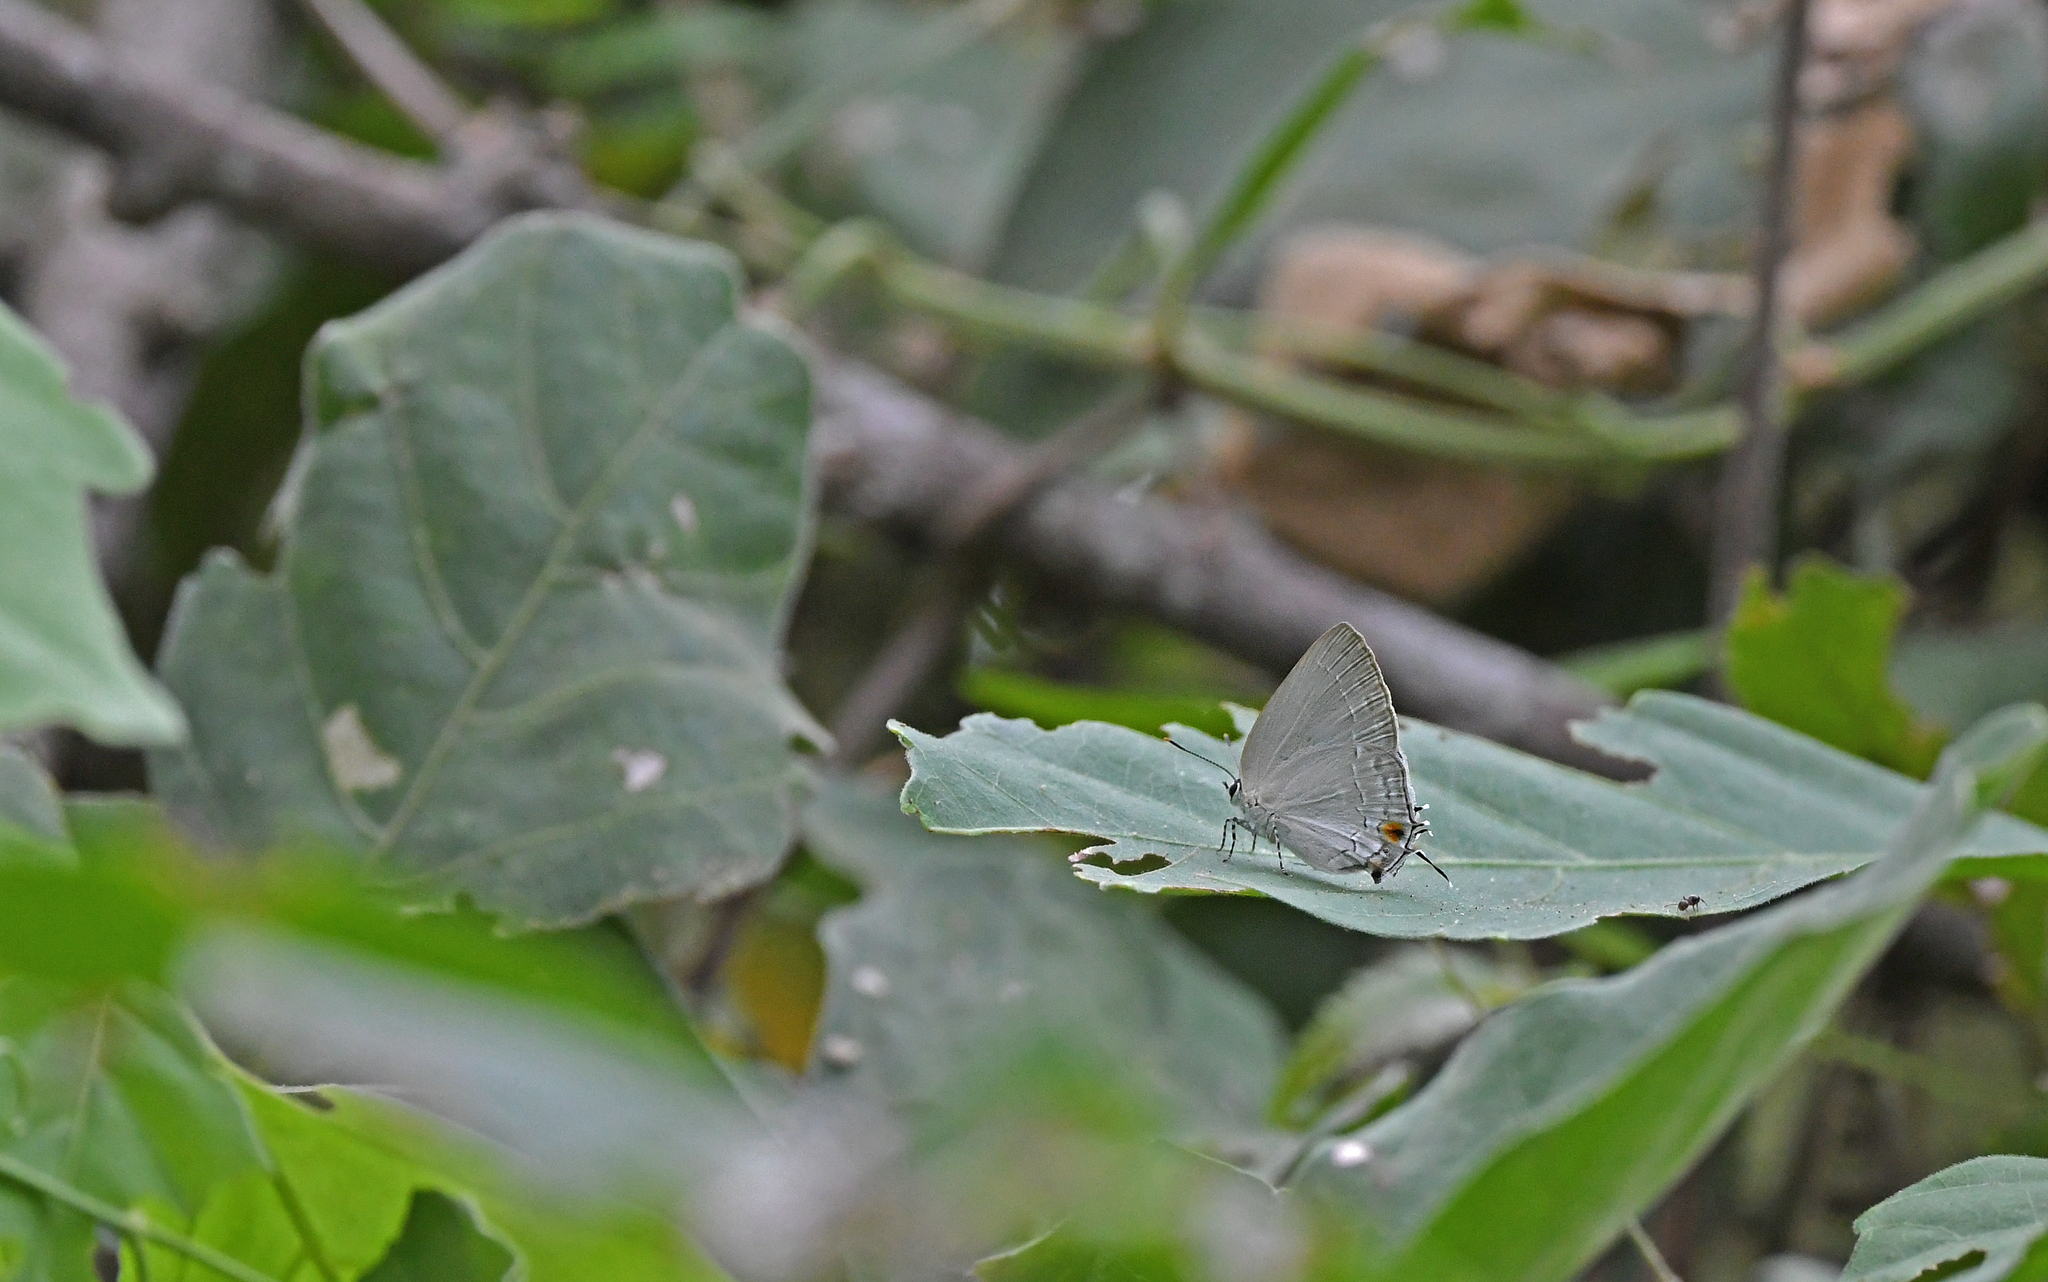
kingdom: Animalia
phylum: Arthropoda
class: Insecta
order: Lepidoptera
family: Lycaenidae
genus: Strephonota
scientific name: Strephonota tephraeus
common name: Pearly-gray hairstreak
